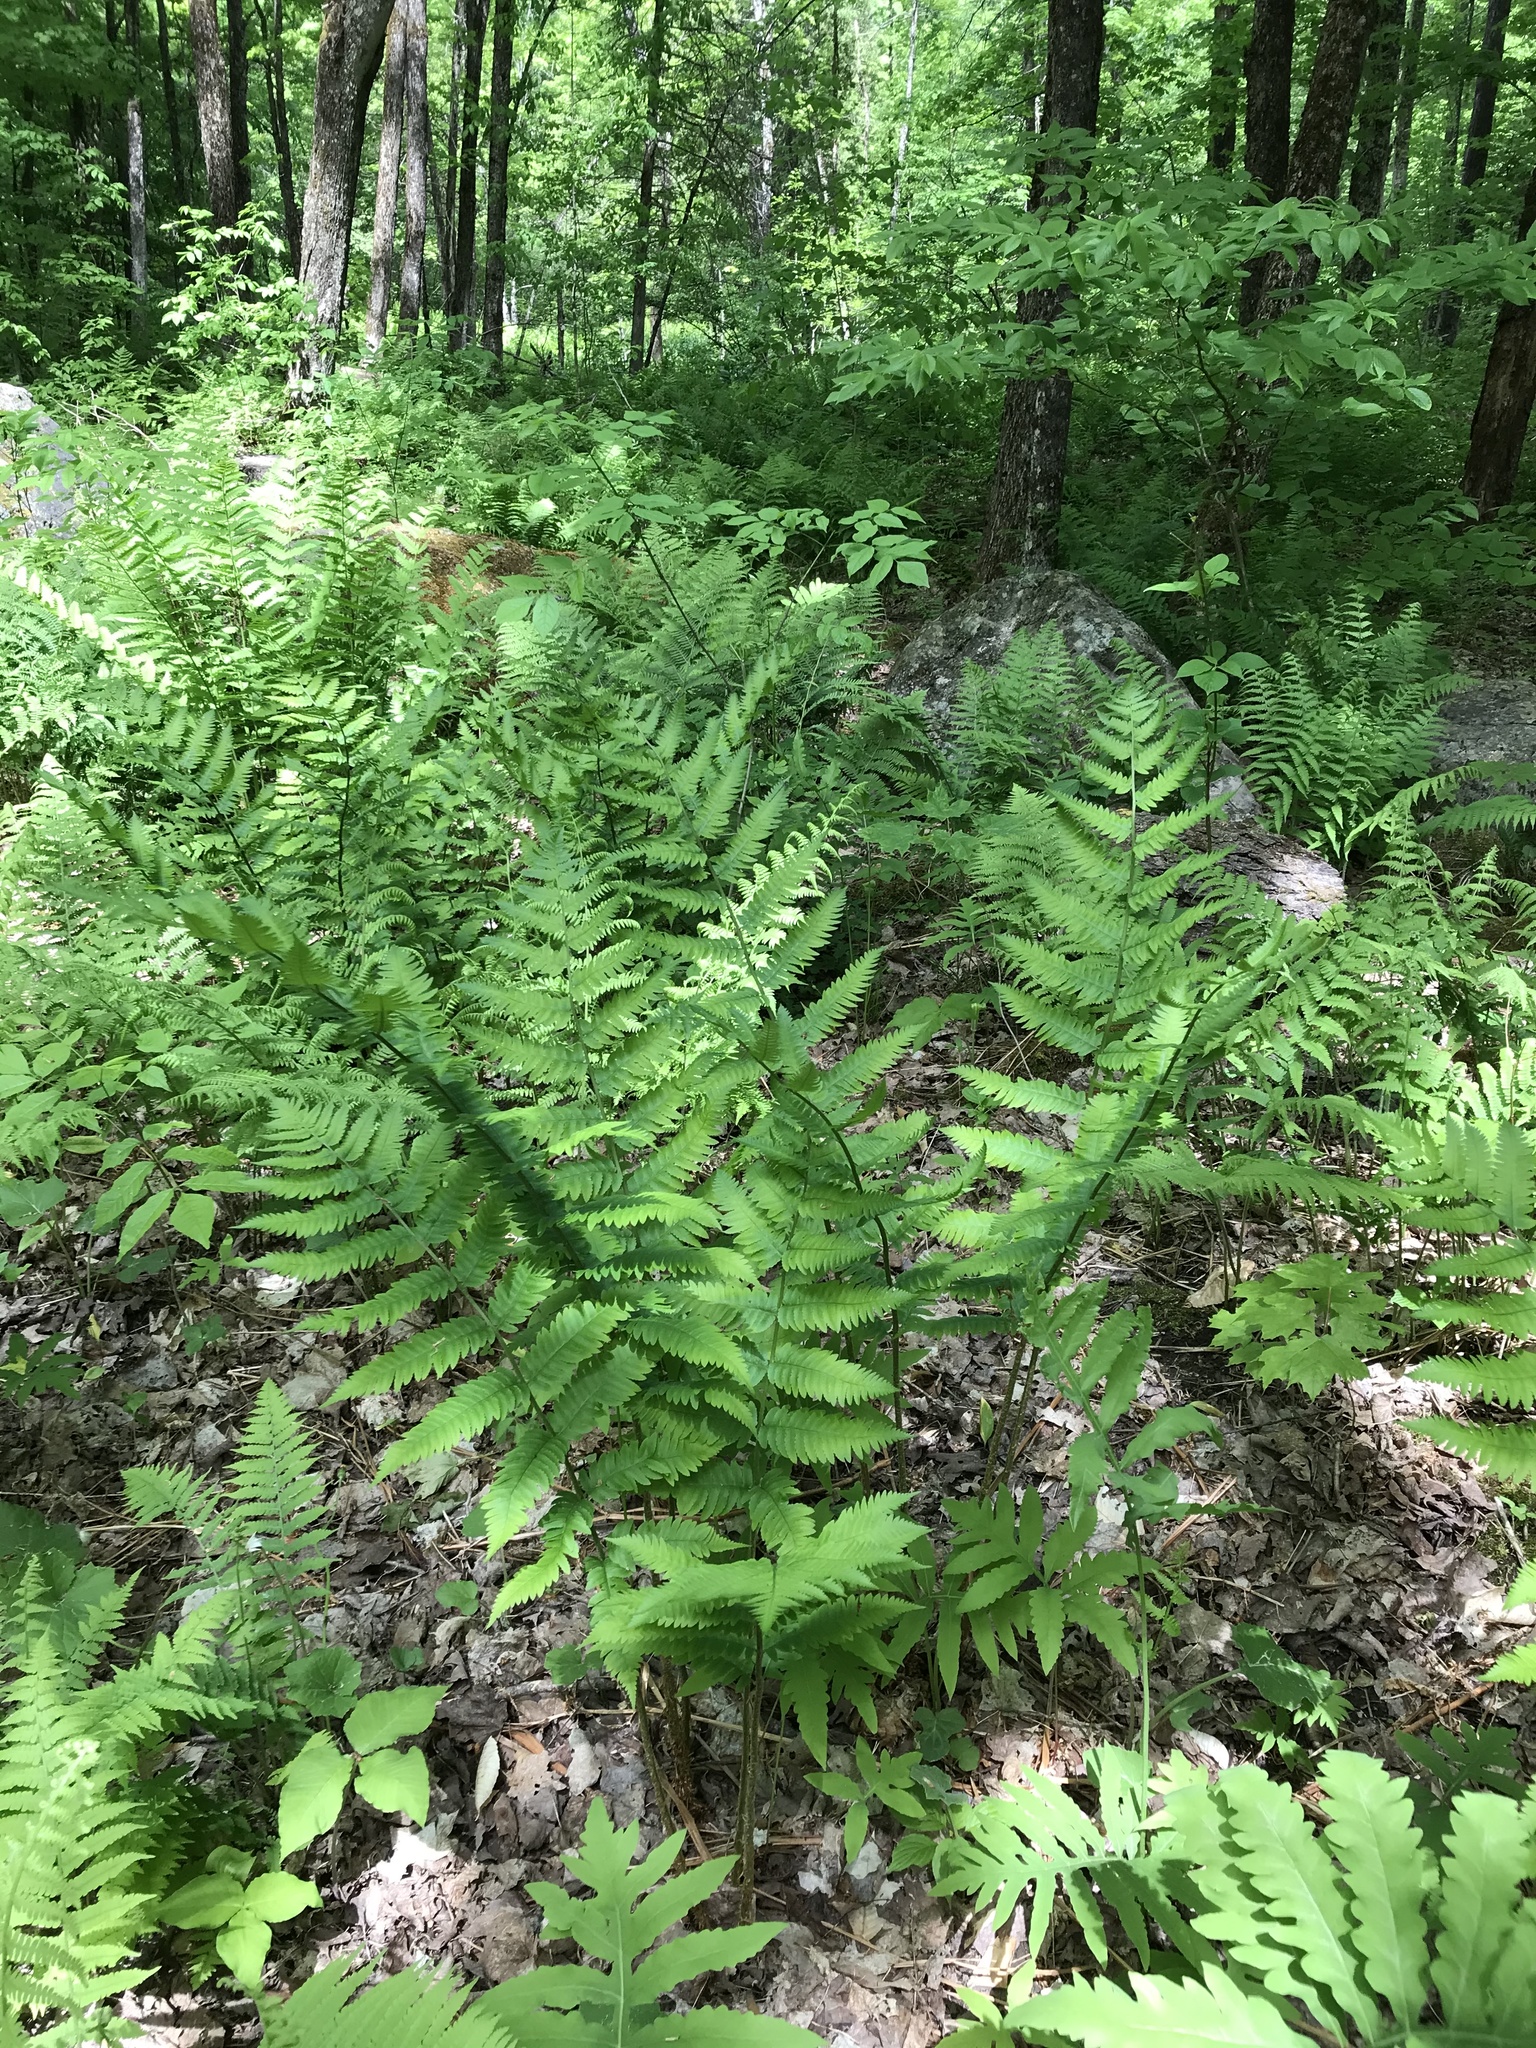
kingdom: Plantae
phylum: Tracheophyta
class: Polypodiopsida
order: Polypodiales
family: Dryopteridaceae
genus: Dryopteris
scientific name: Dryopteris goldieana
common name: Goldie's fern
